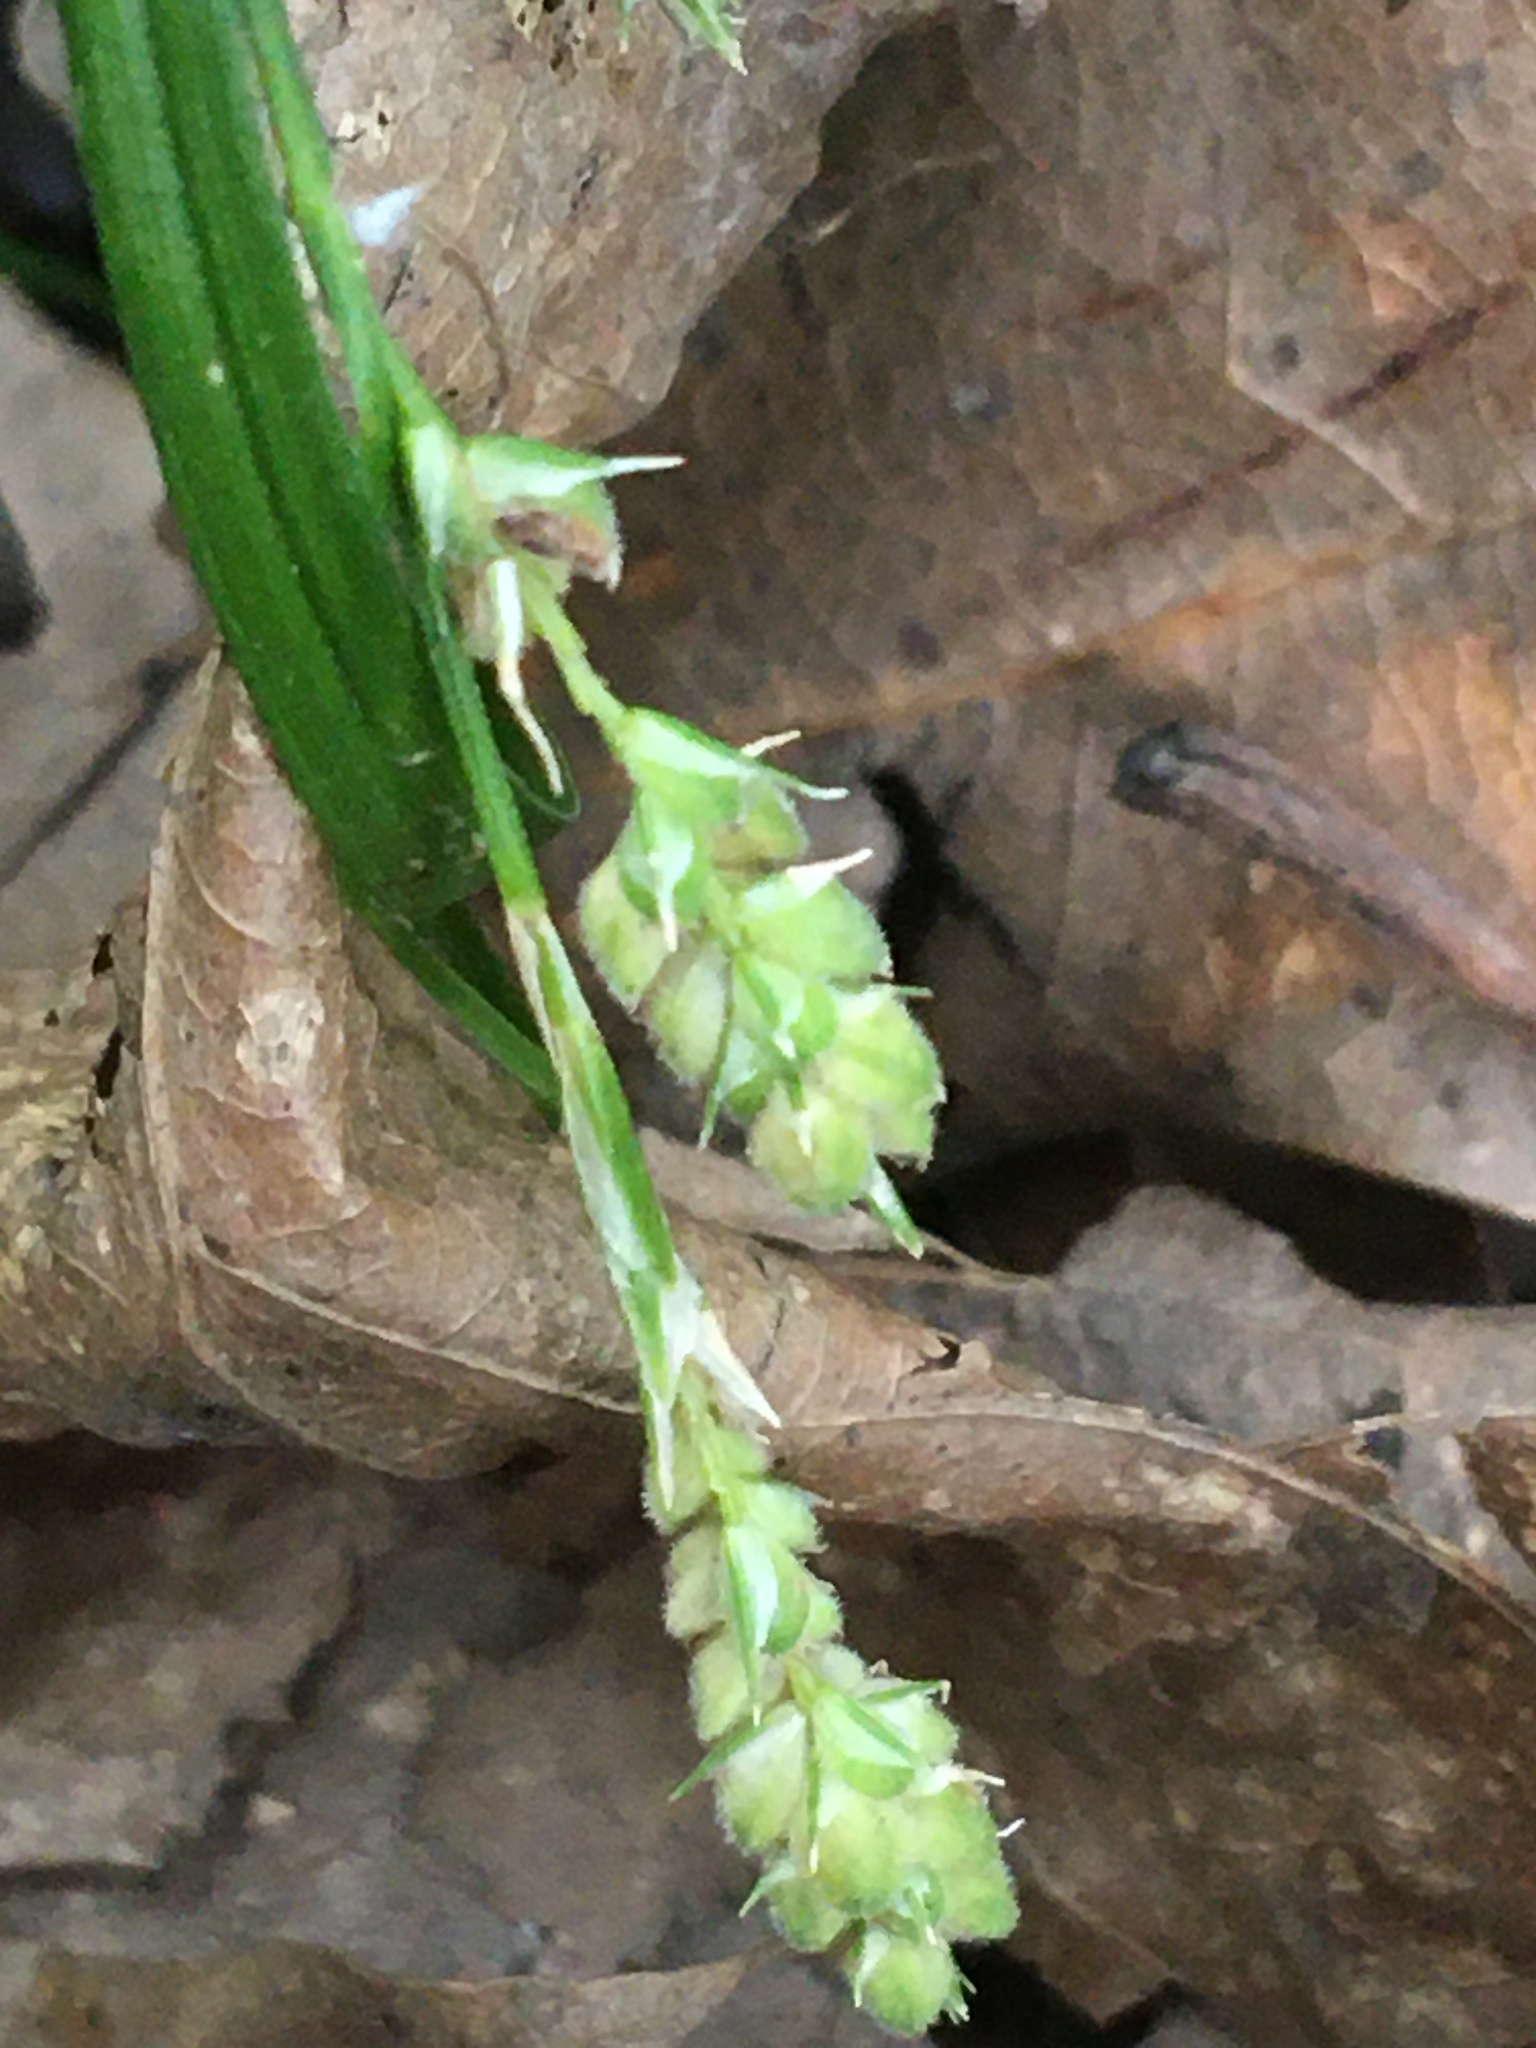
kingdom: Plantae
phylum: Tracheophyta
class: Liliopsida
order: Poales
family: Cyperaceae
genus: Carex
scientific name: Carex swanii
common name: Downy green sedge
